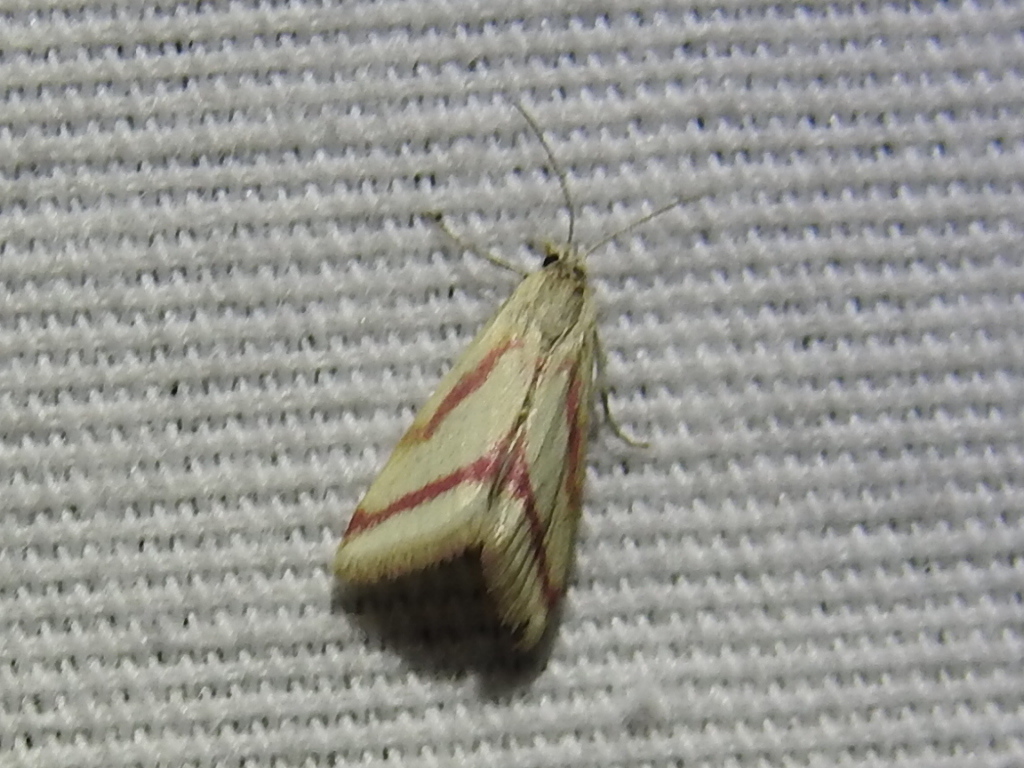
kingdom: Animalia
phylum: Arthropoda
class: Insecta
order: Lepidoptera
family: Crambidae
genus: Microtheoris
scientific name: Microtheoris vibicalis
